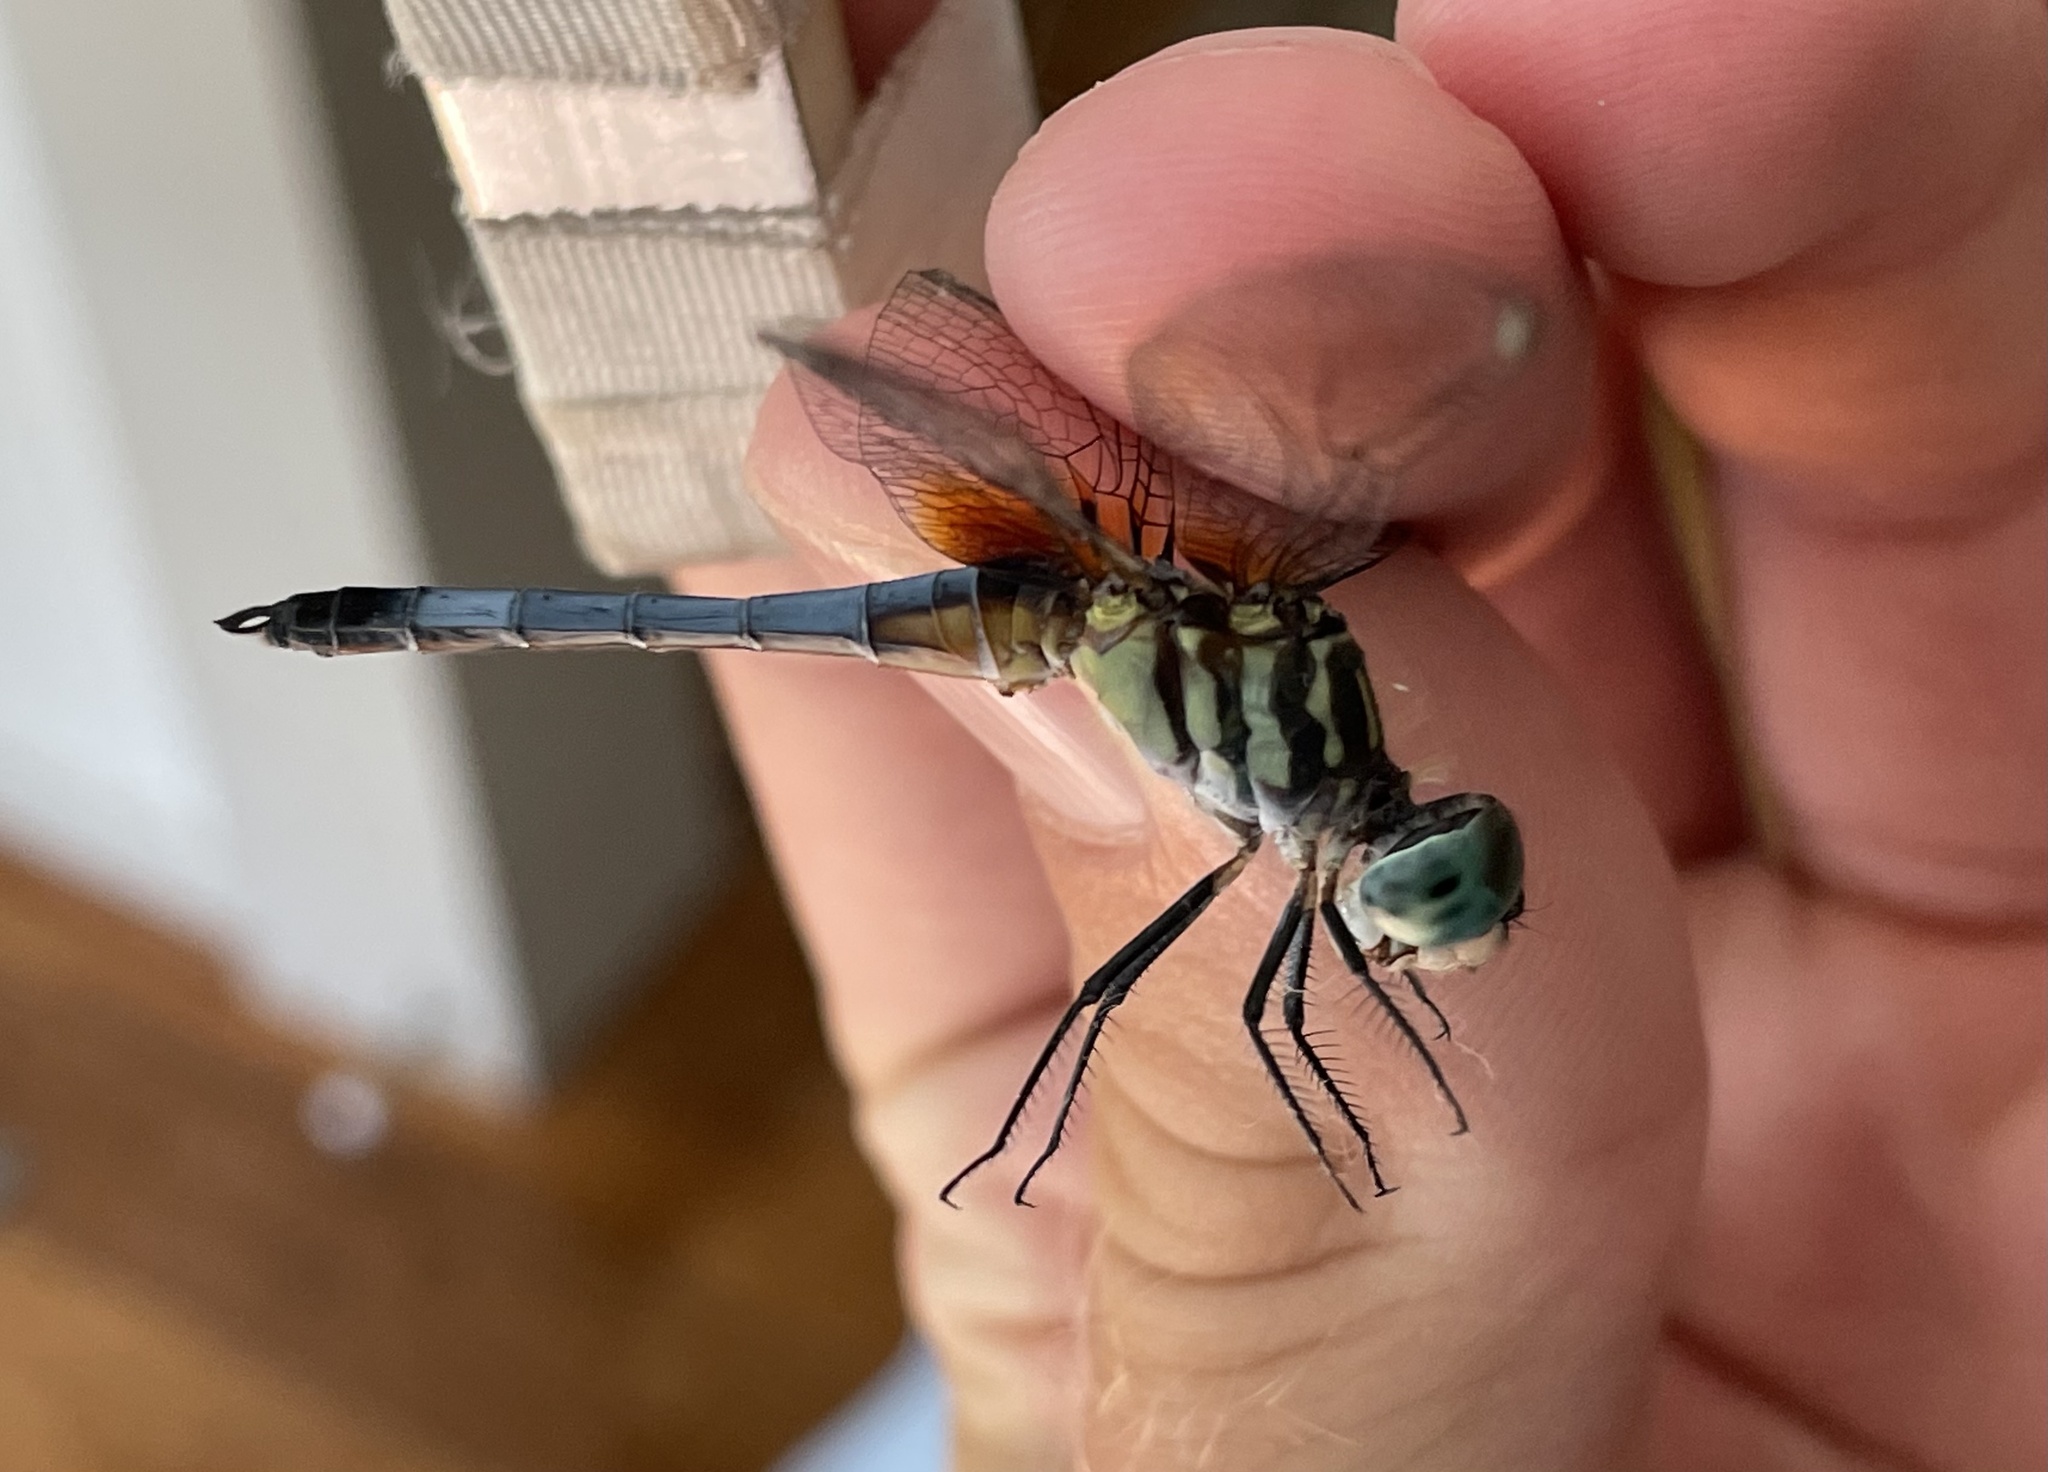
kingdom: Animalia
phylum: Arthropoda
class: Insecta
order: Odonata
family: Libellulidae
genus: Pachydiplax
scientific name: Pachydiplax longipennis
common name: Blue dasher
